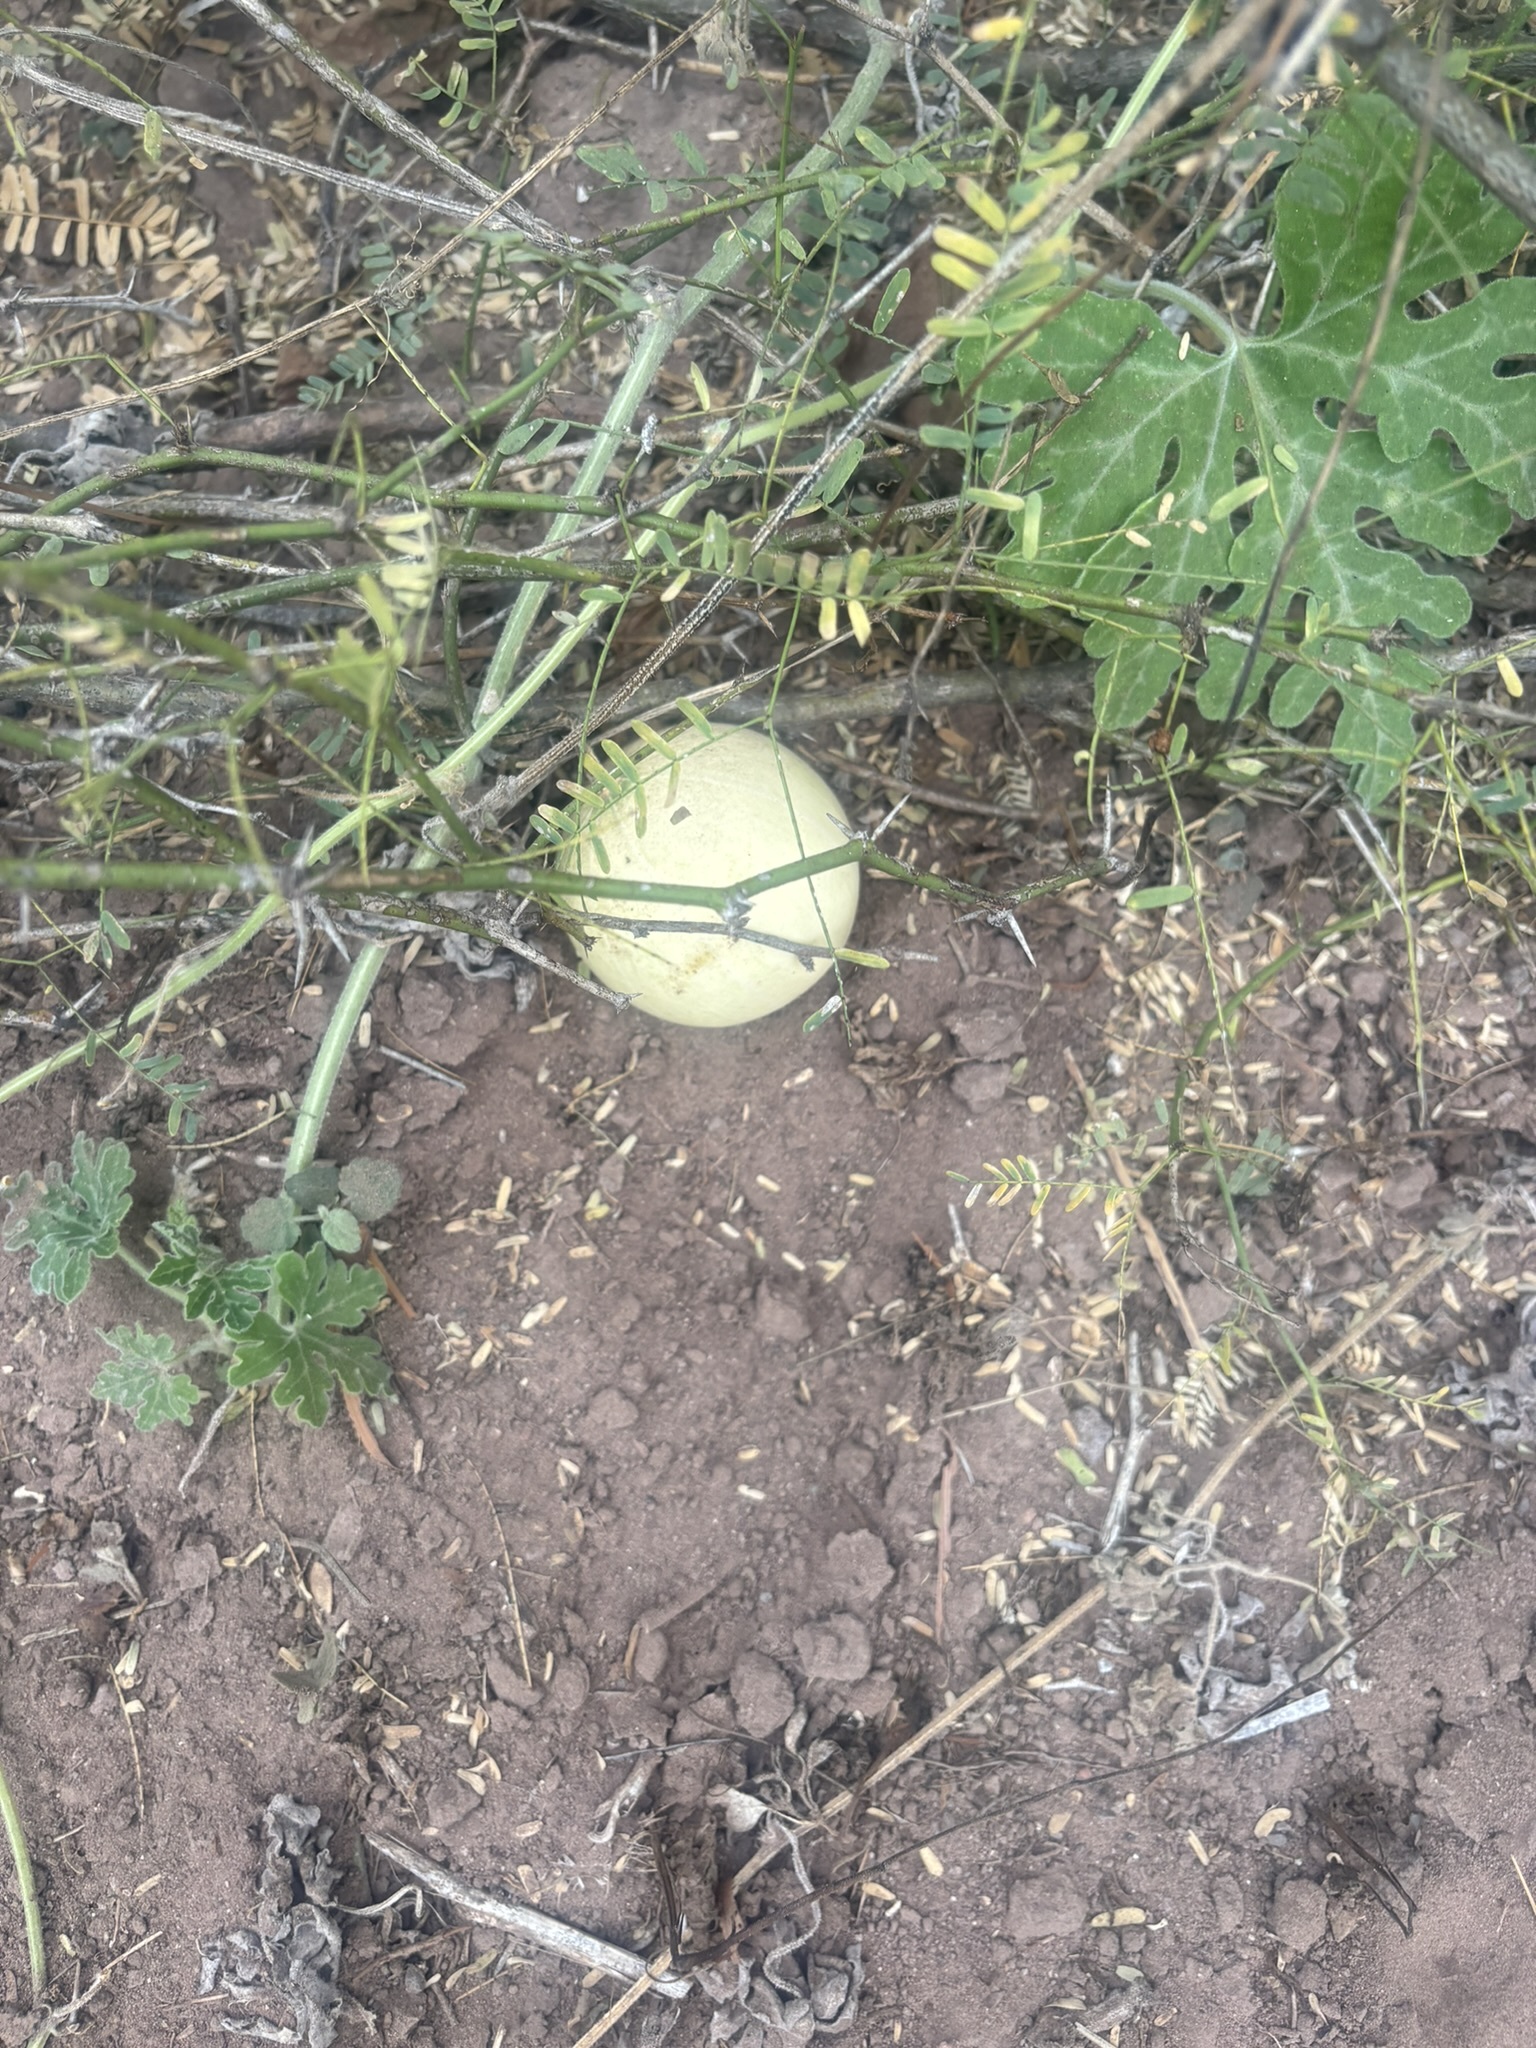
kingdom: Plantae
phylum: Tracheophyta
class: Magnoliopsida
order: Cucurbitales
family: Cucurbitaceae
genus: Cucurbita
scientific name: Cucurbita cordata
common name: Coyote gourd
